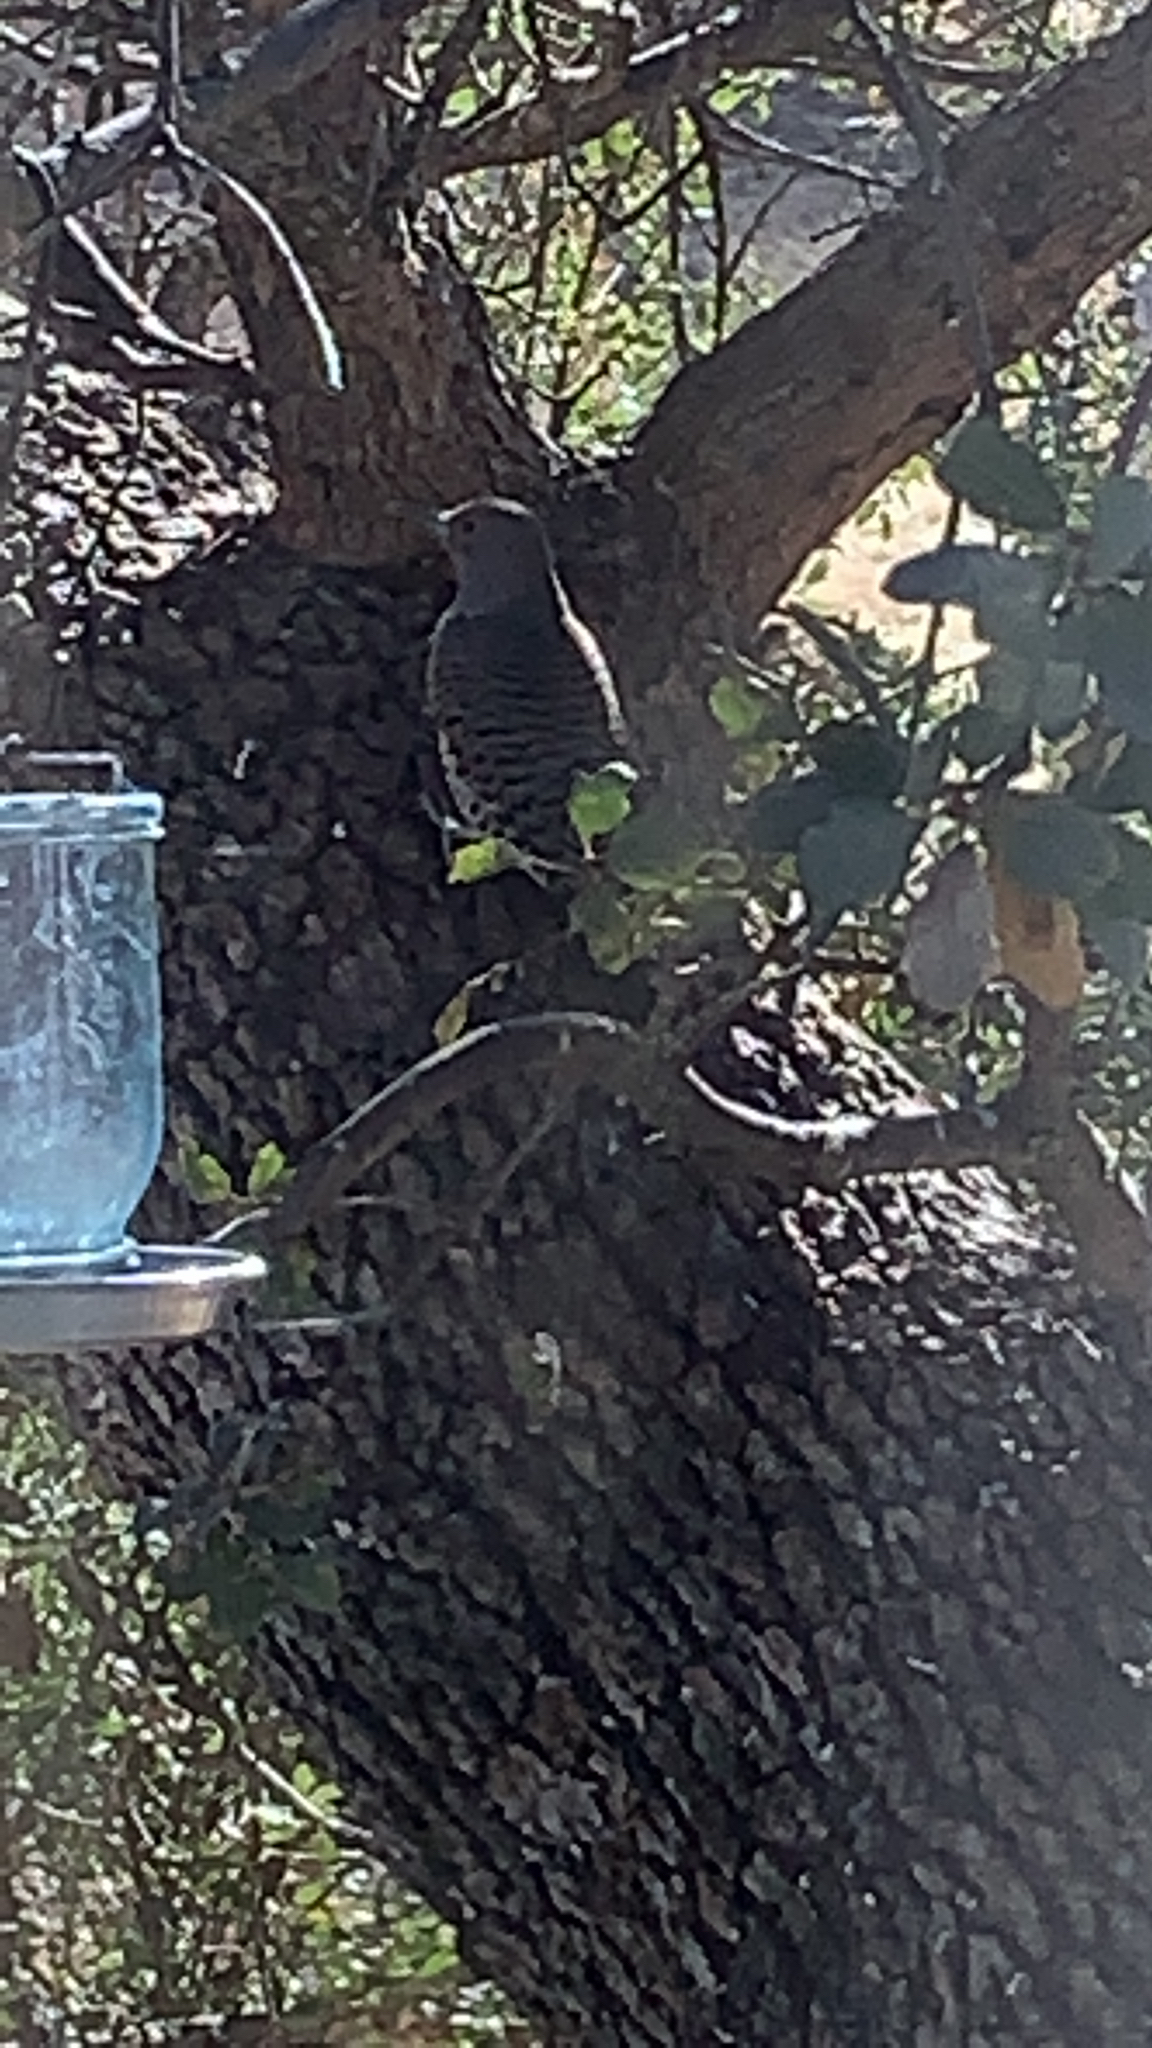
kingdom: Animalia
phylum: Chordata
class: Aves
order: Piciformes
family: Picidae
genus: Colaptes
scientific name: Colaptes auratus
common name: Northern flicker
